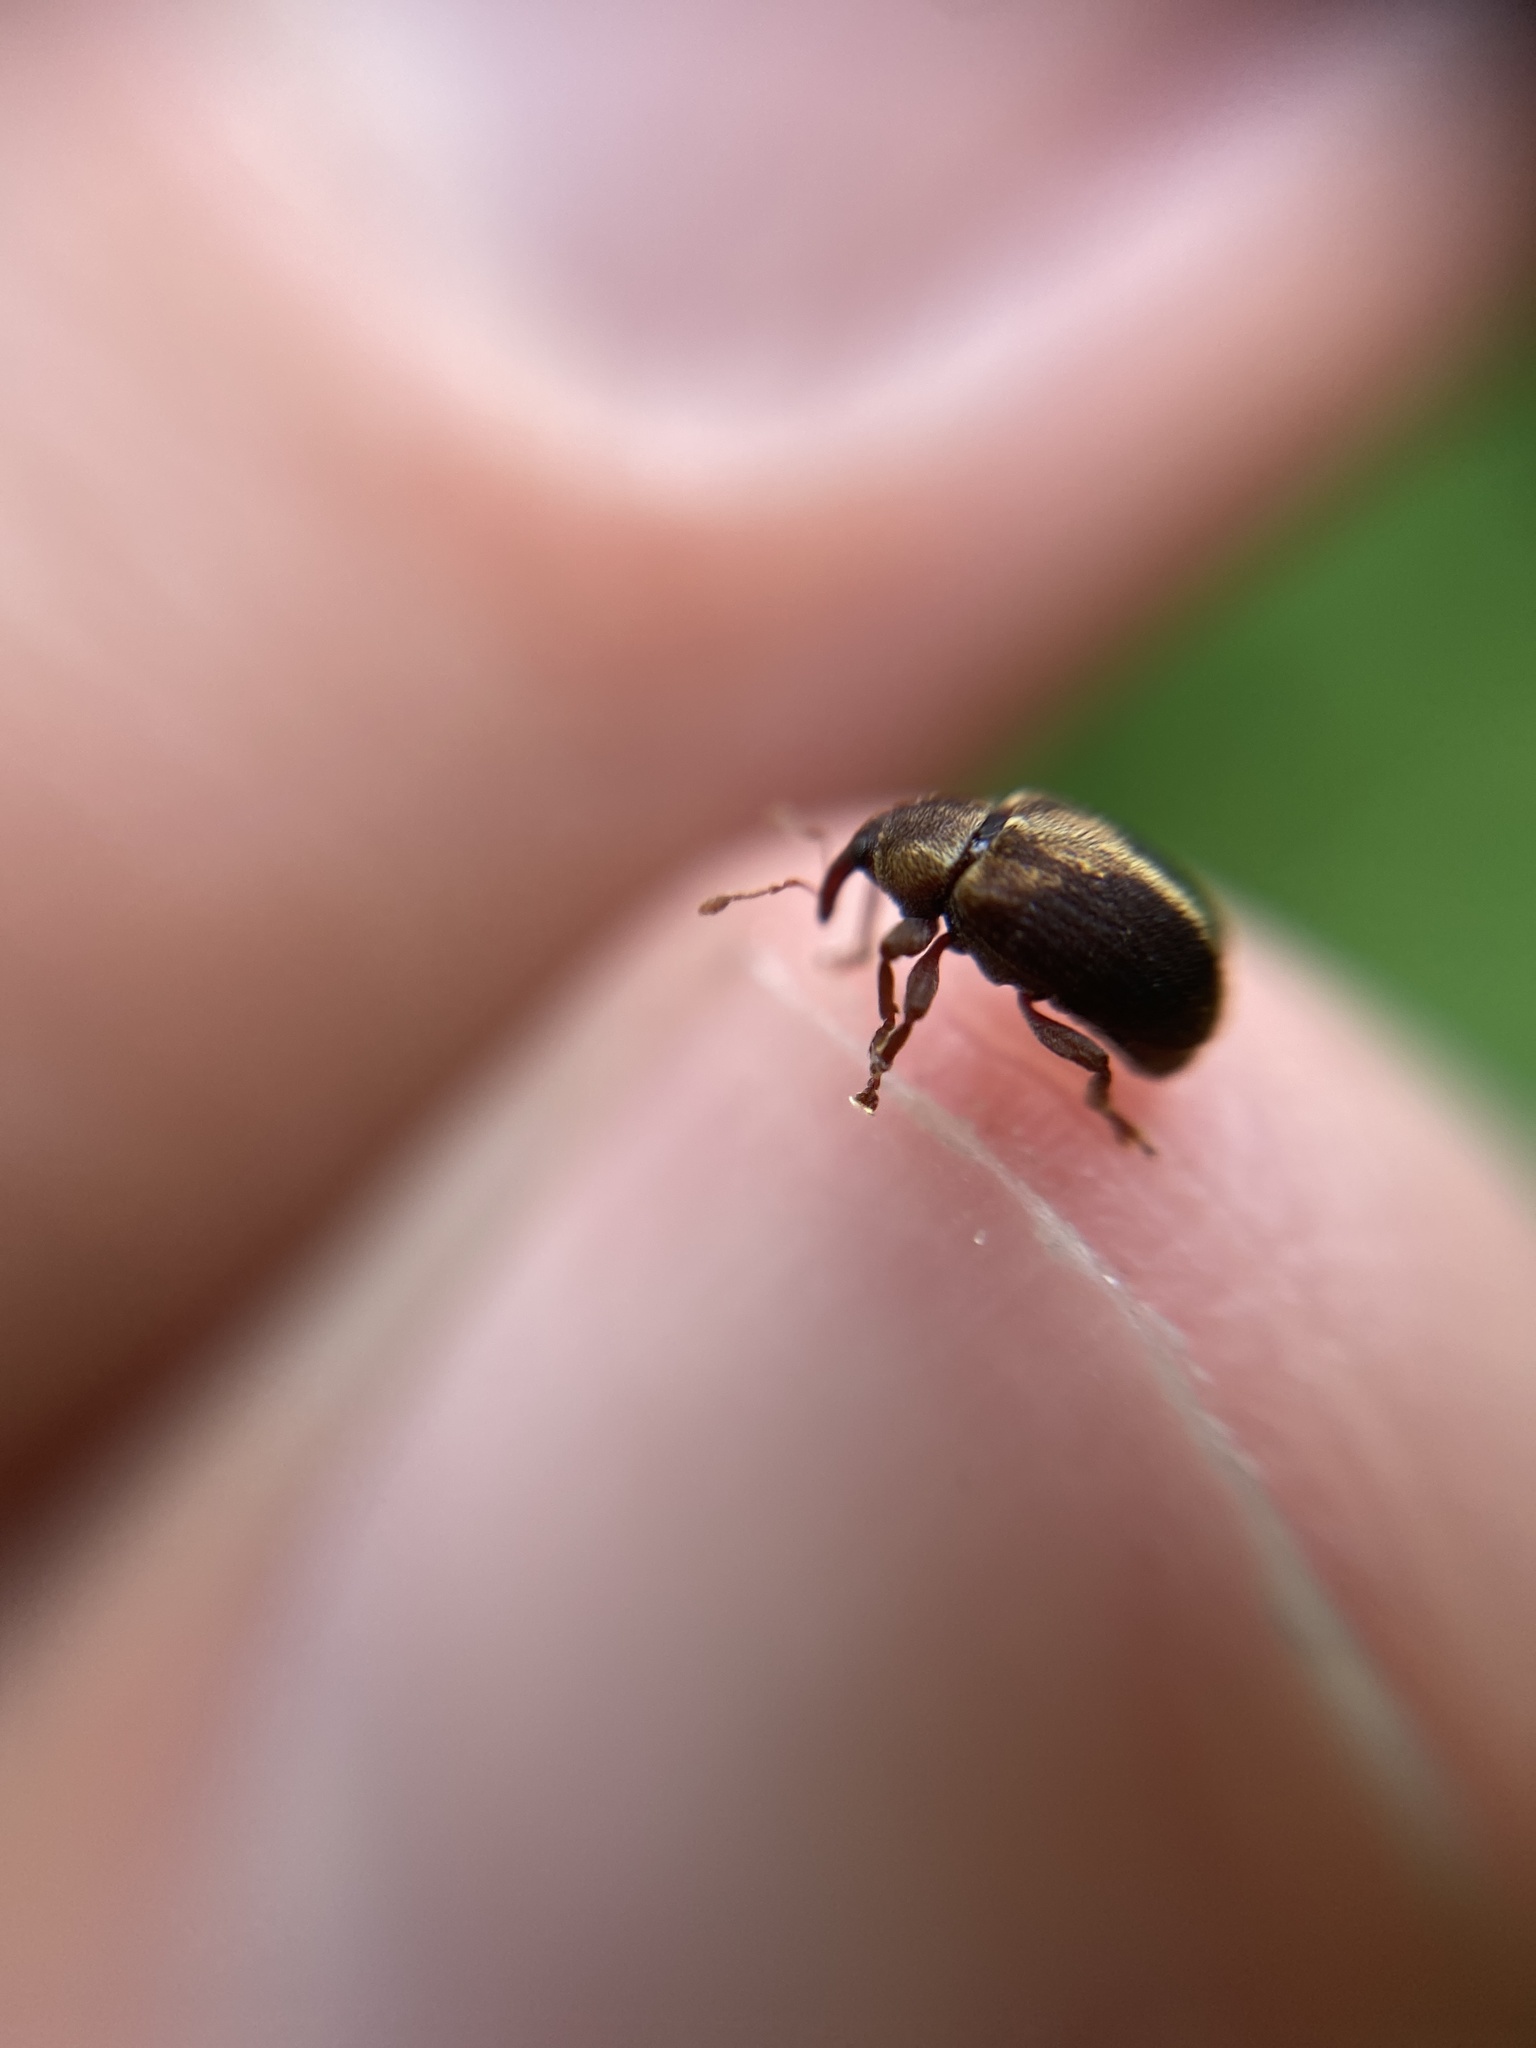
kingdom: Animalia
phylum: Arthropoda
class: Insecta
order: Coleoptera
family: Curculionidae
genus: Lignyodes
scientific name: Lignyodes enucleator
